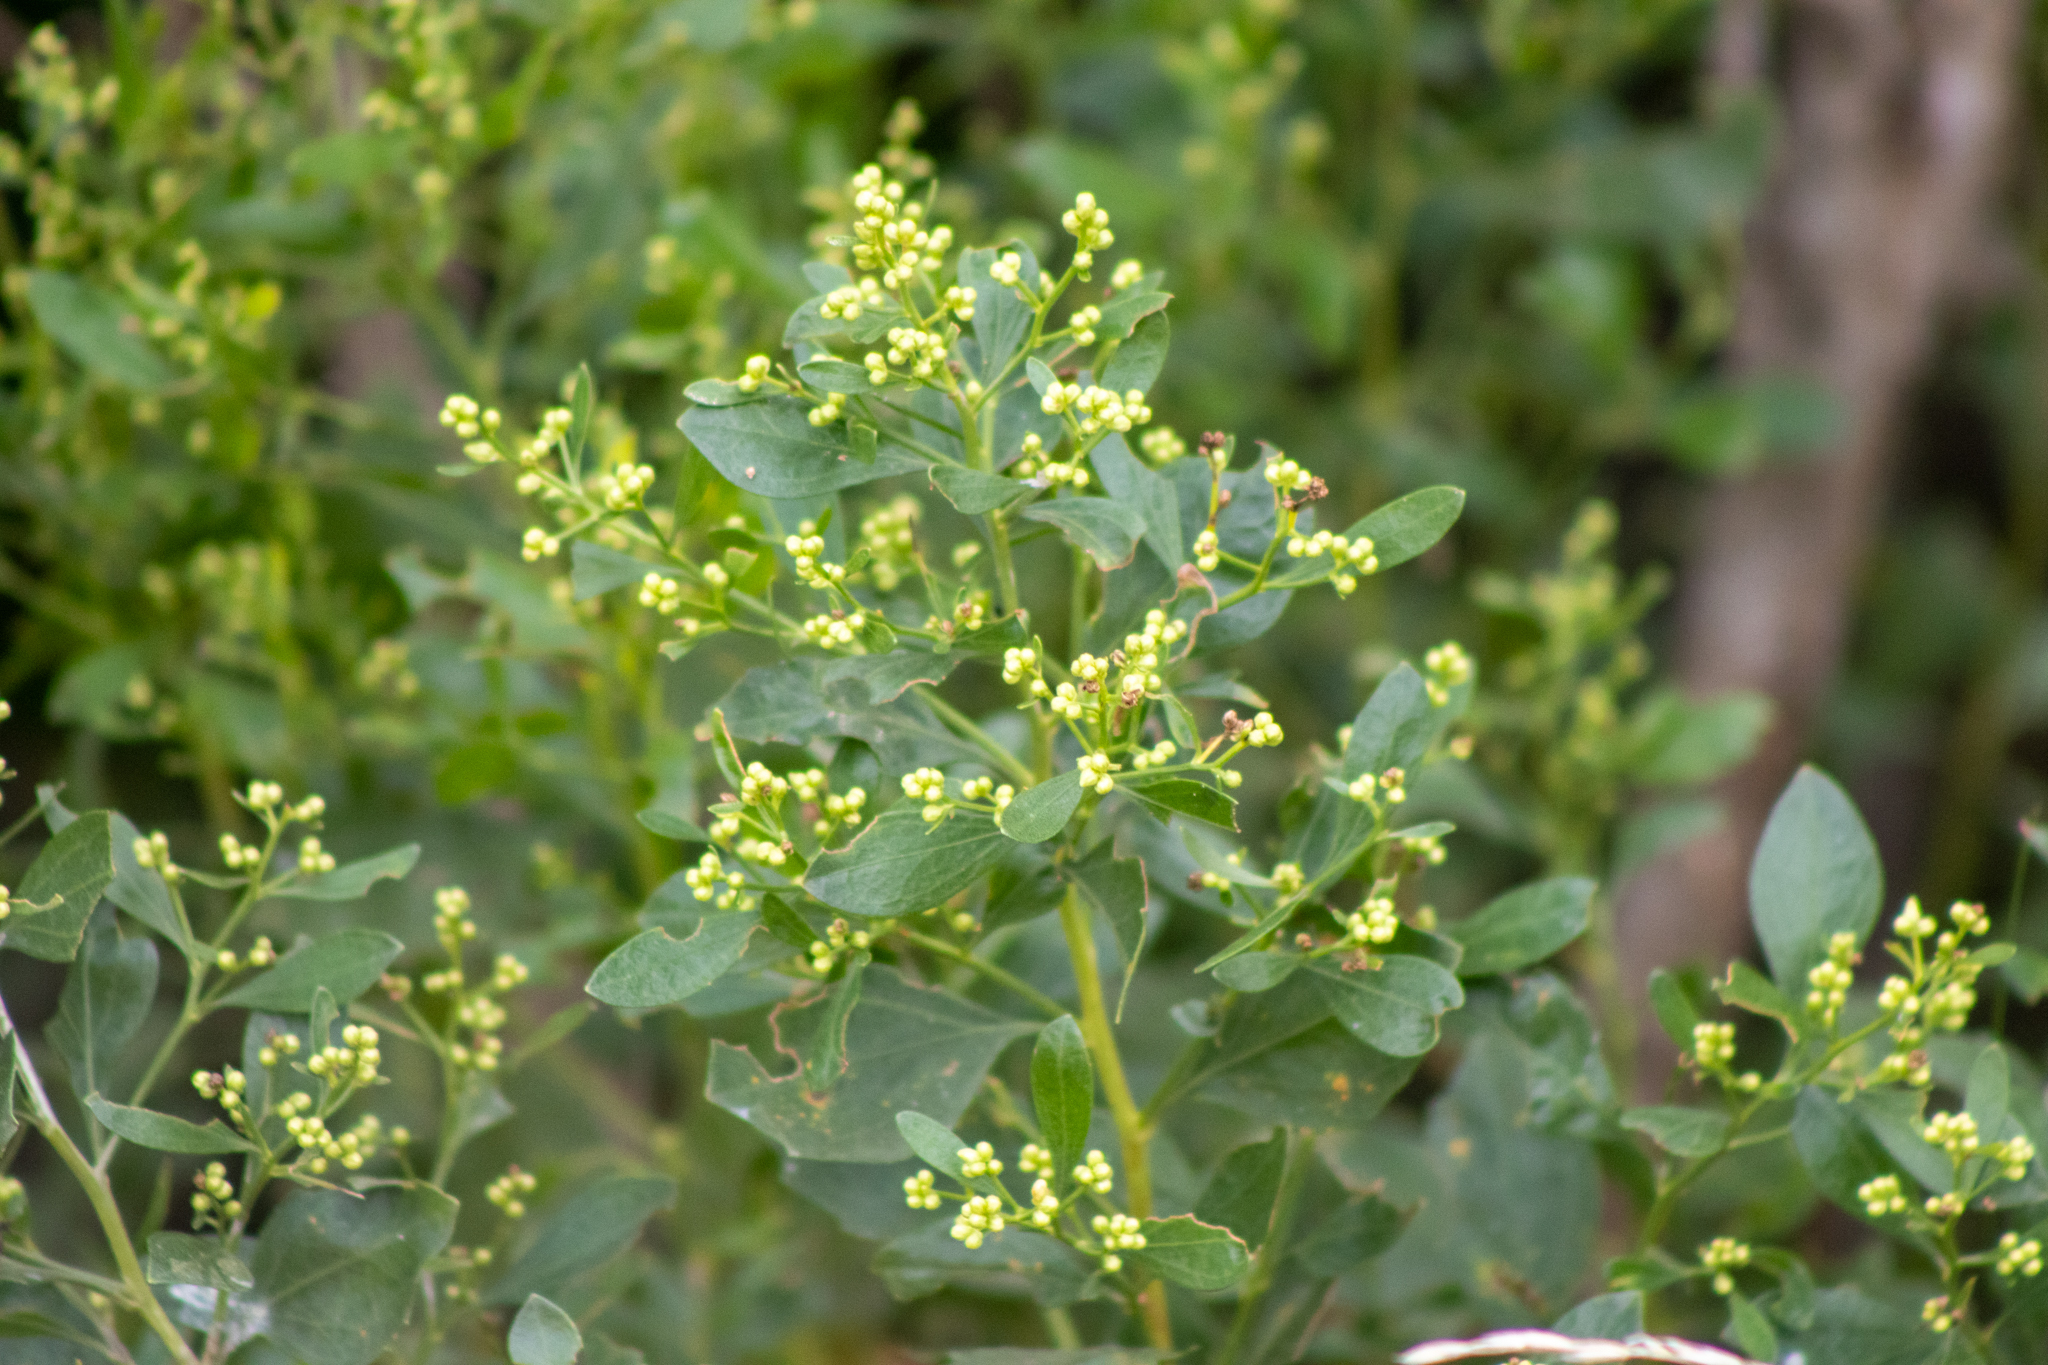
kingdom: Plantae
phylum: Tracheophyta
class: Magnoliopsida
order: Asterales
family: Asteraceae
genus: Baccharis
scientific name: Baccharis halimifolia
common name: Eastern baccharis
